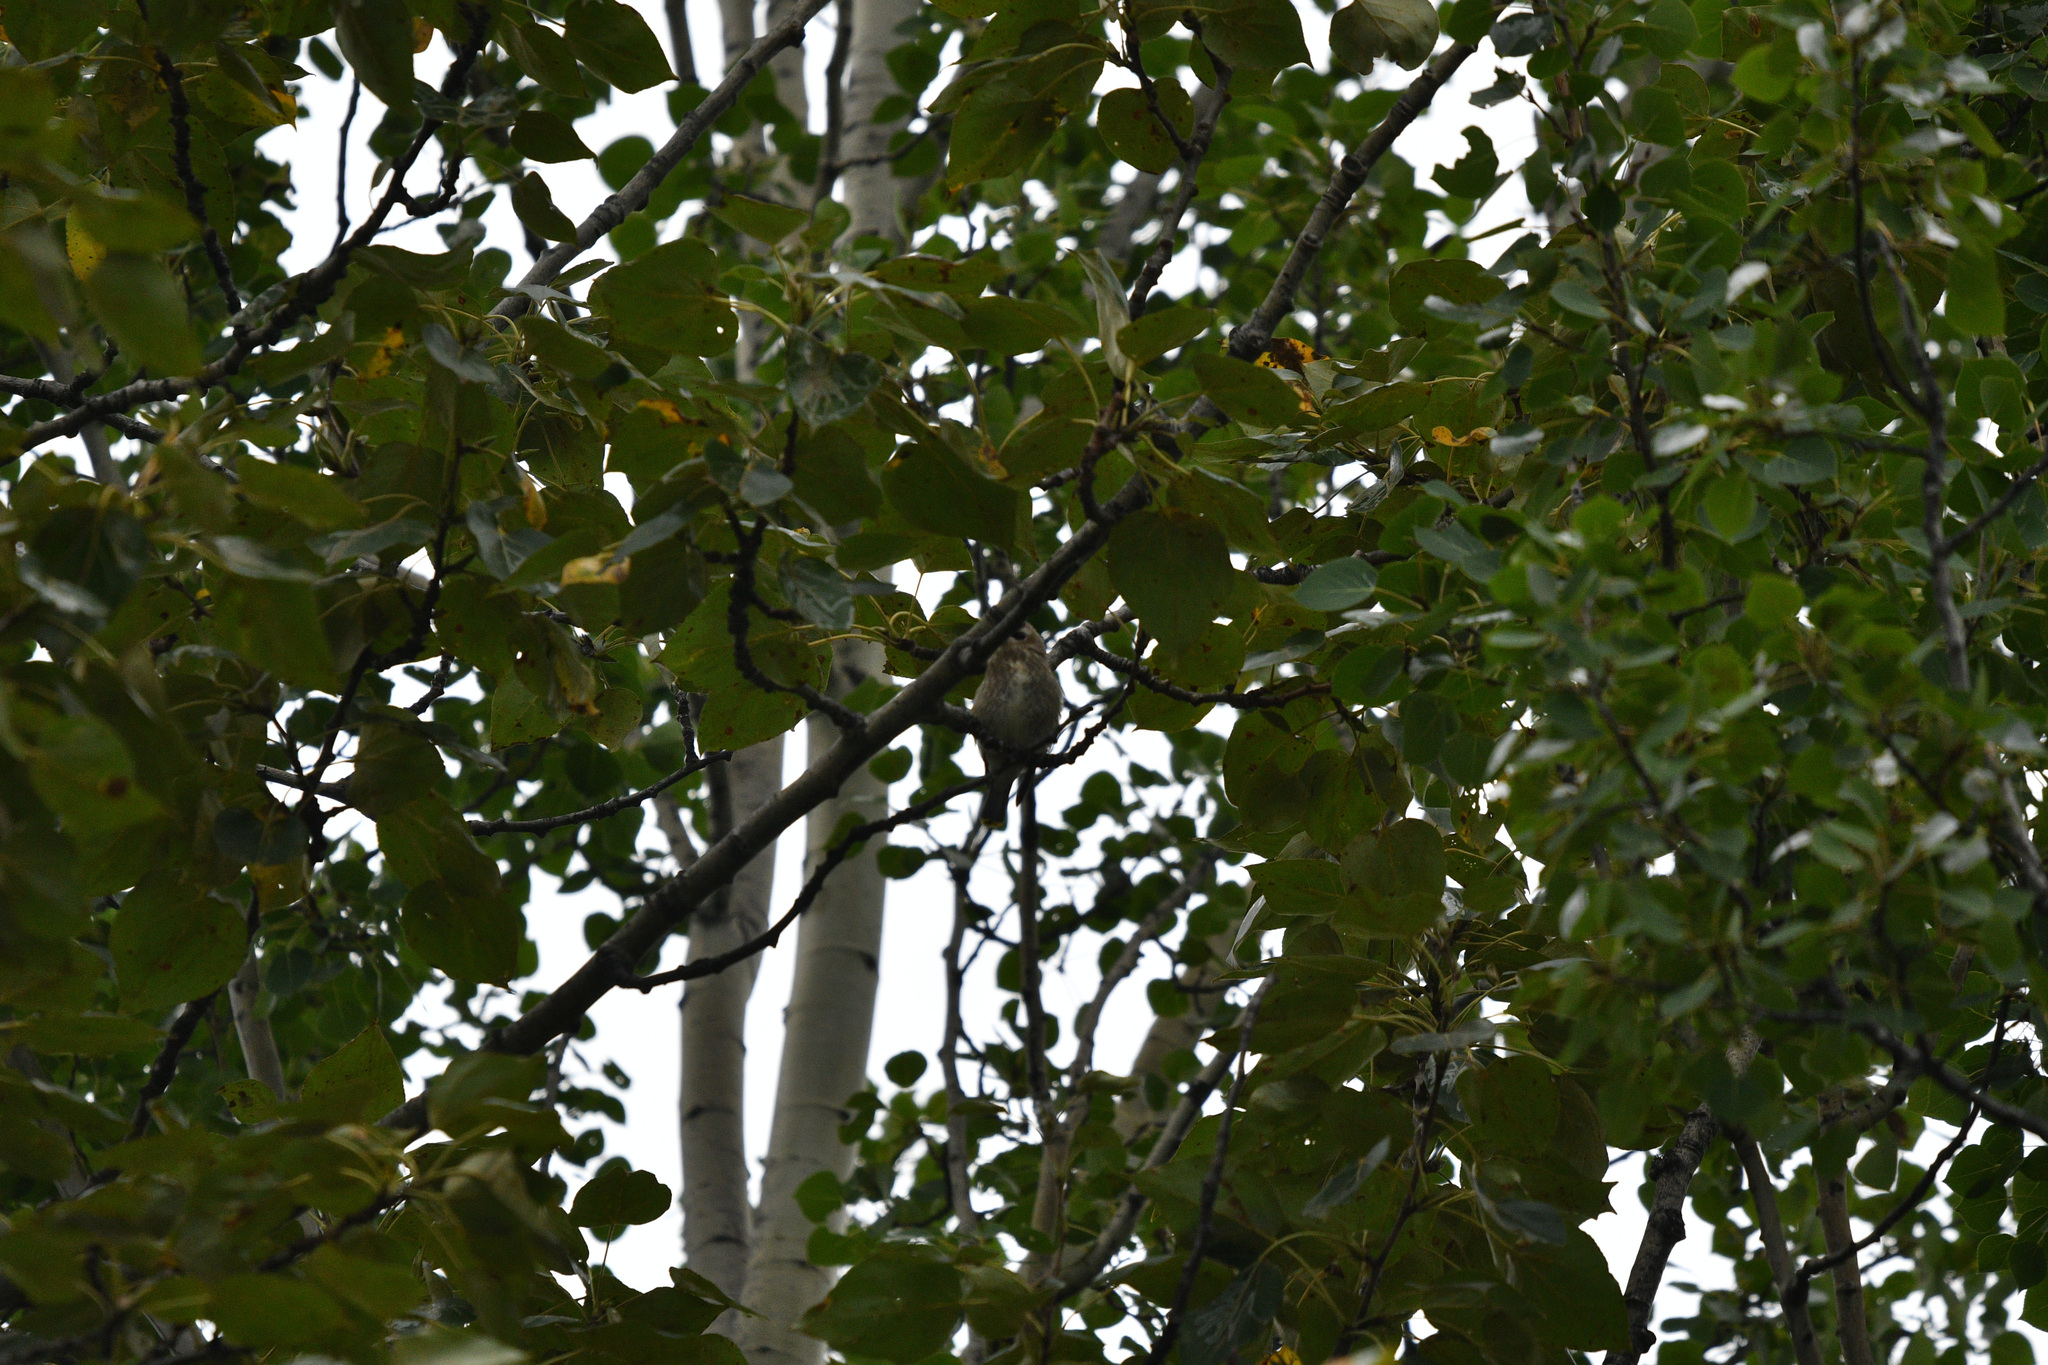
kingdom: Animalia
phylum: Chordata
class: Aves
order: Passeriformes
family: Bombycillidae
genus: Bombycilla
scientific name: Bombycilla cedrorum
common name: Cedar waxwing
